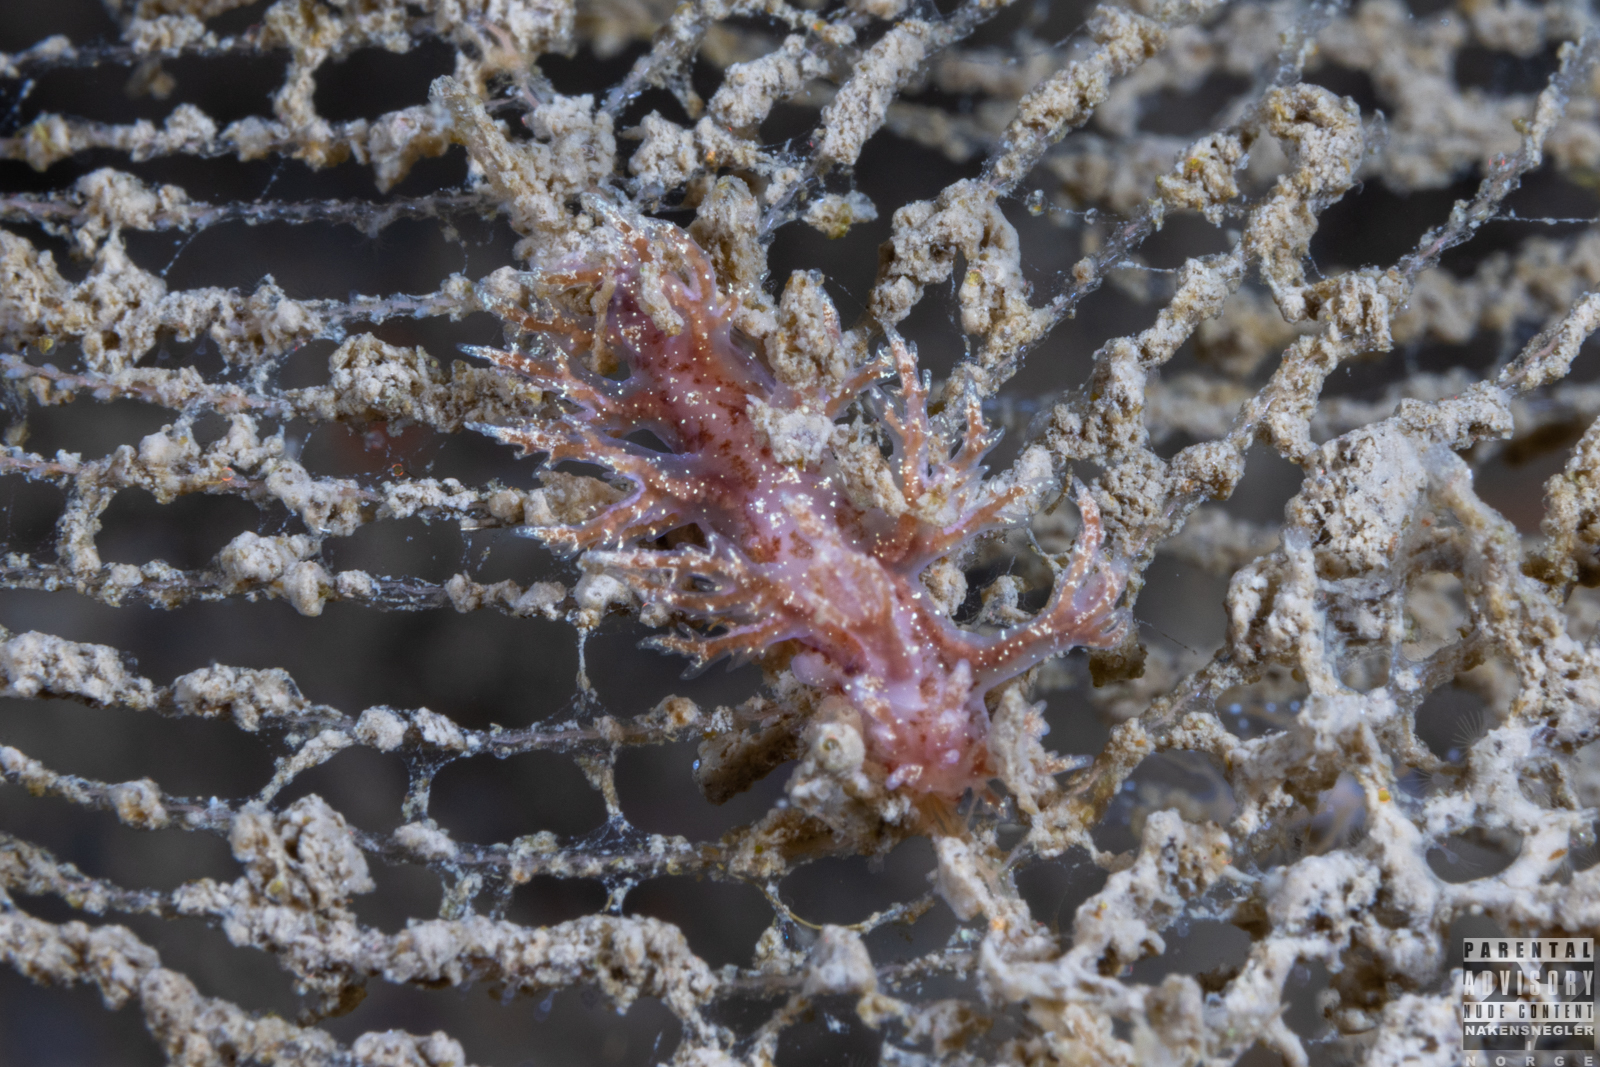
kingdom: Animalia
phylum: Mollusca
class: Gastropoda
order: Nudibranchia
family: Dendronotidae
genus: Dendronotus
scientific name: Dendronotus frondosus
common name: Bushy-backed nudibranch
